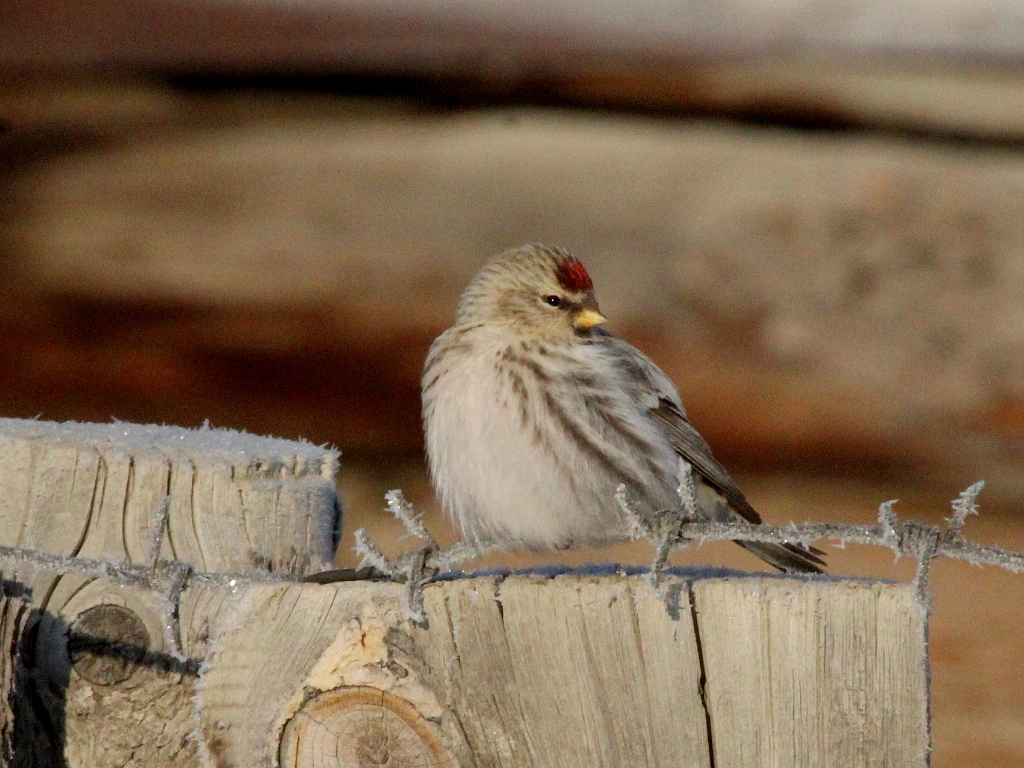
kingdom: Animalia
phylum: Chordata
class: Aves
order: Passeriformes
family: Fringillidae
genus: Acanthis
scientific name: Acanthis flammea
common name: Common redpoll
